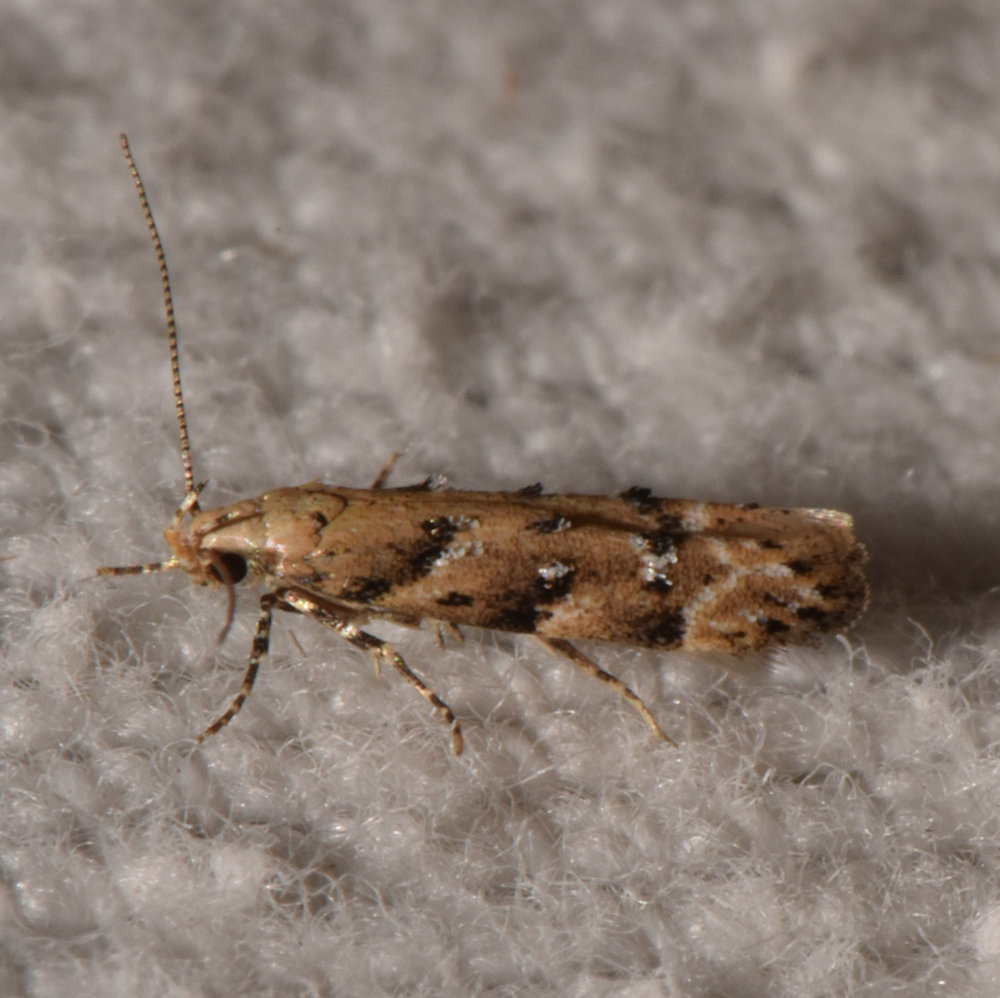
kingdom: Animalia
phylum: Arthropoda
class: Insecta
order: Lepidoptera
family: Gelechiidae
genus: Coleotechnites
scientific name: Coleotechnites coniferella
